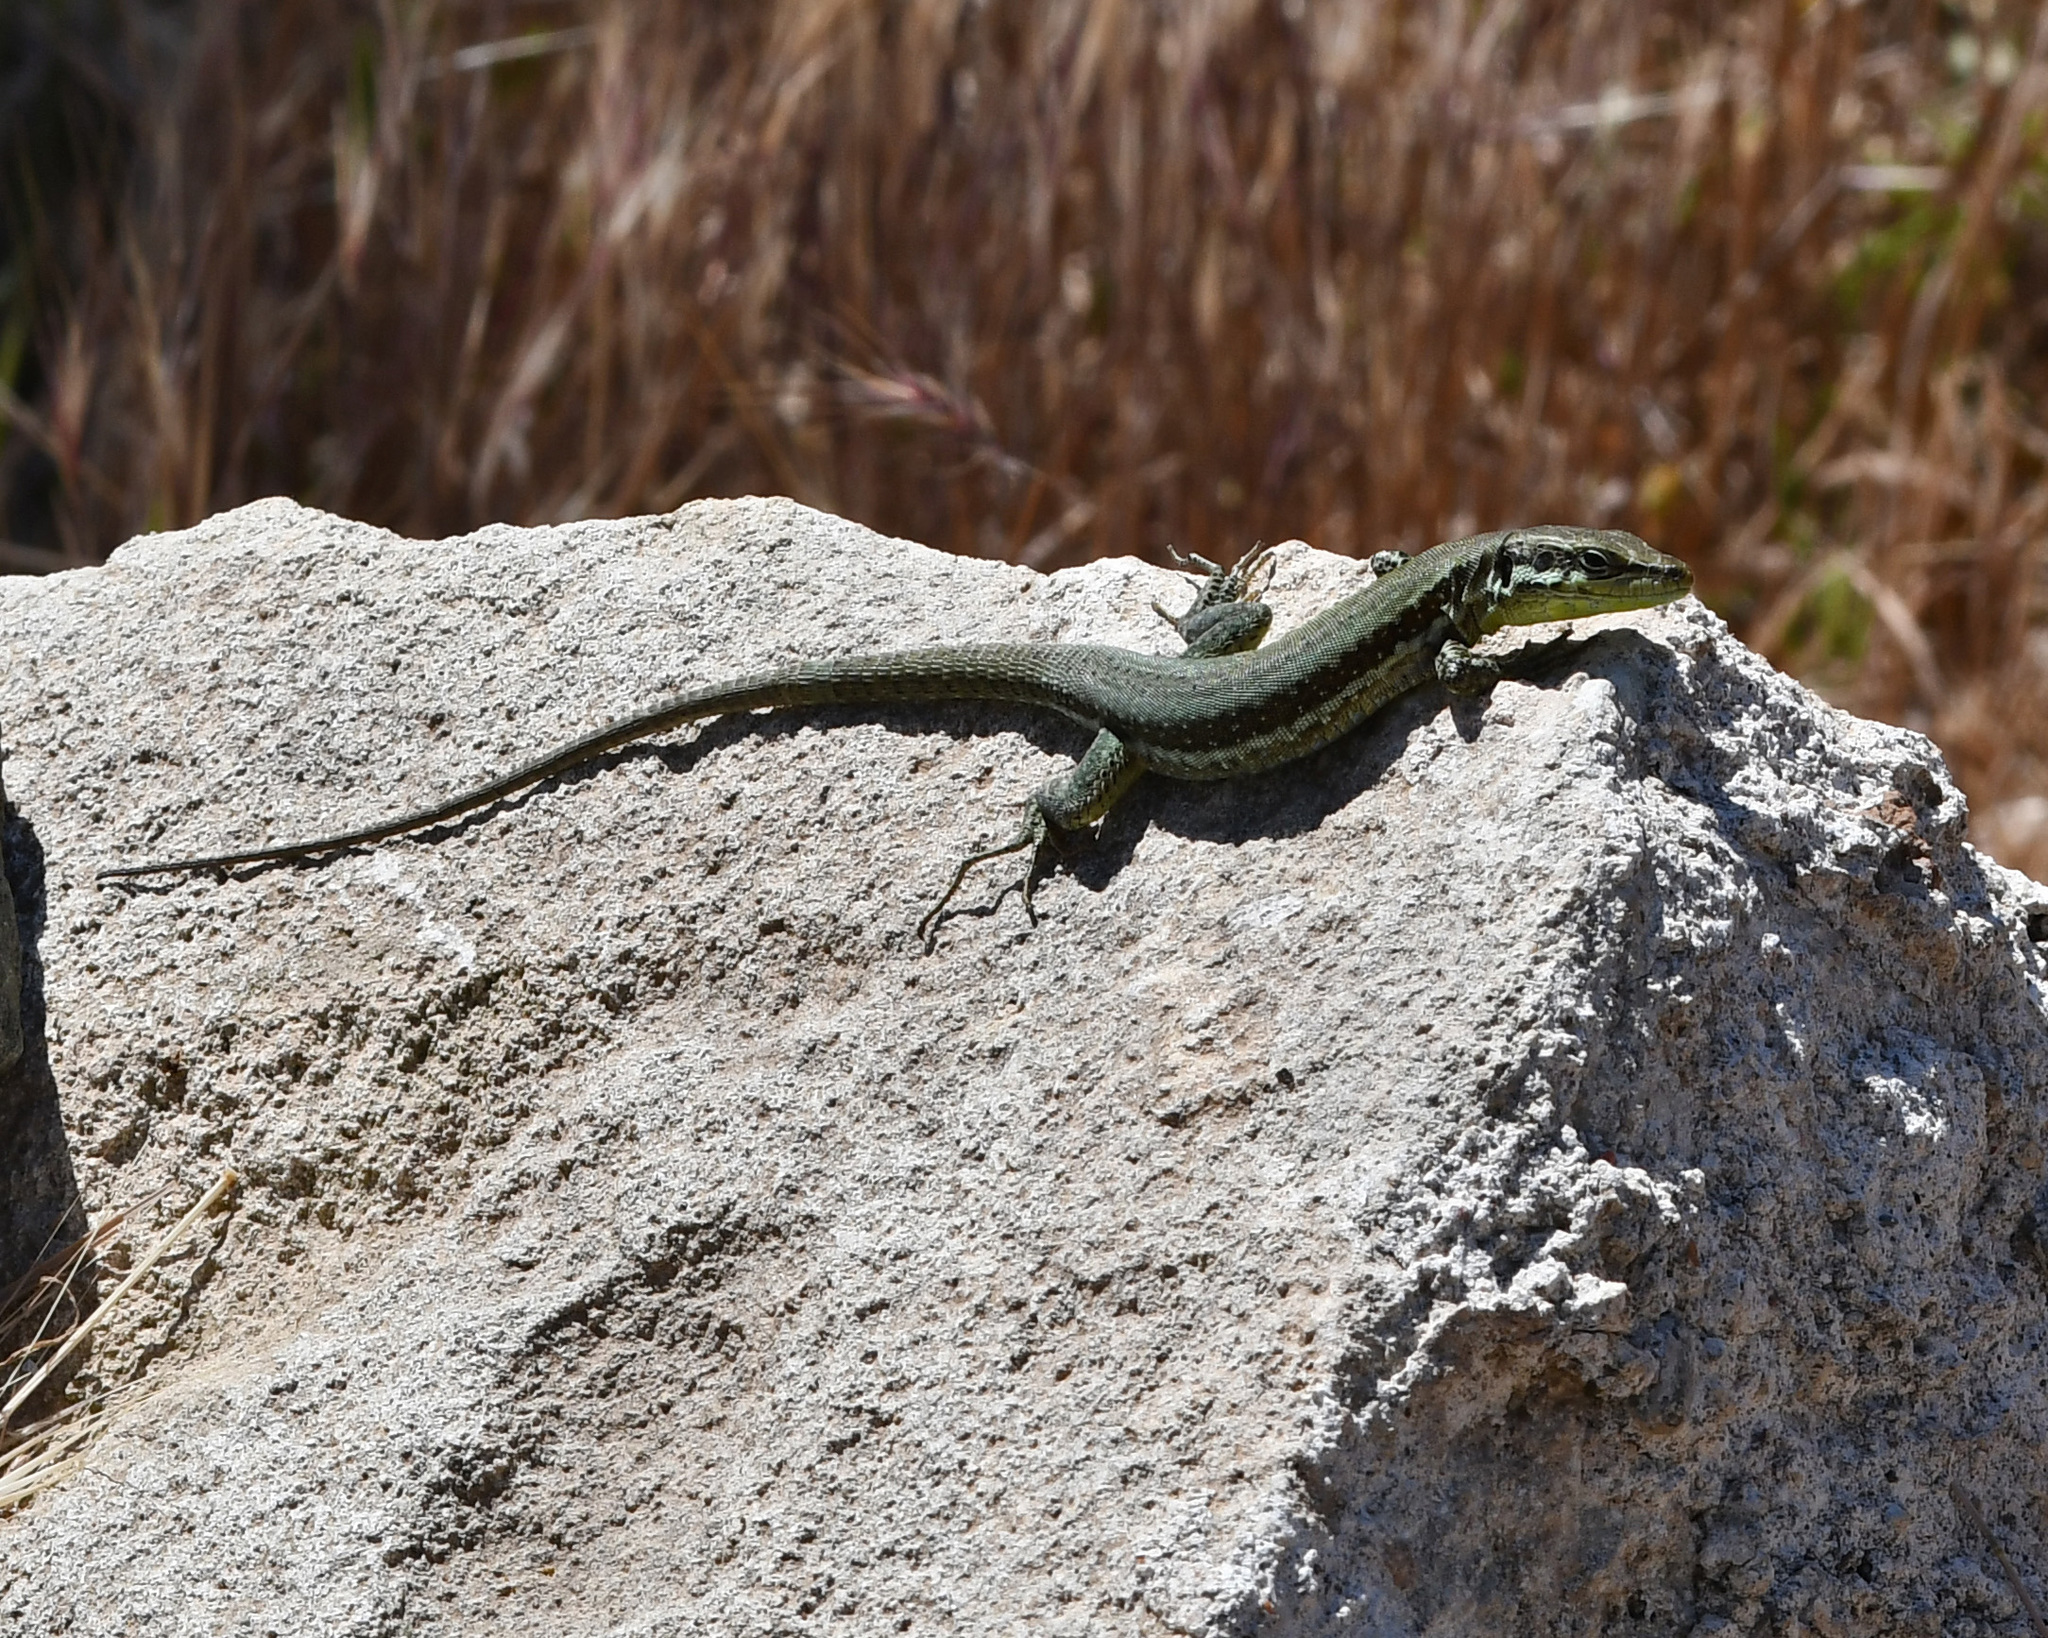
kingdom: Animalia
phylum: Chordata
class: Squamata
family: Lacertidae
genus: Phoenicolacerta
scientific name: Phoenicolacerta troodica
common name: Troodos wall lizard
